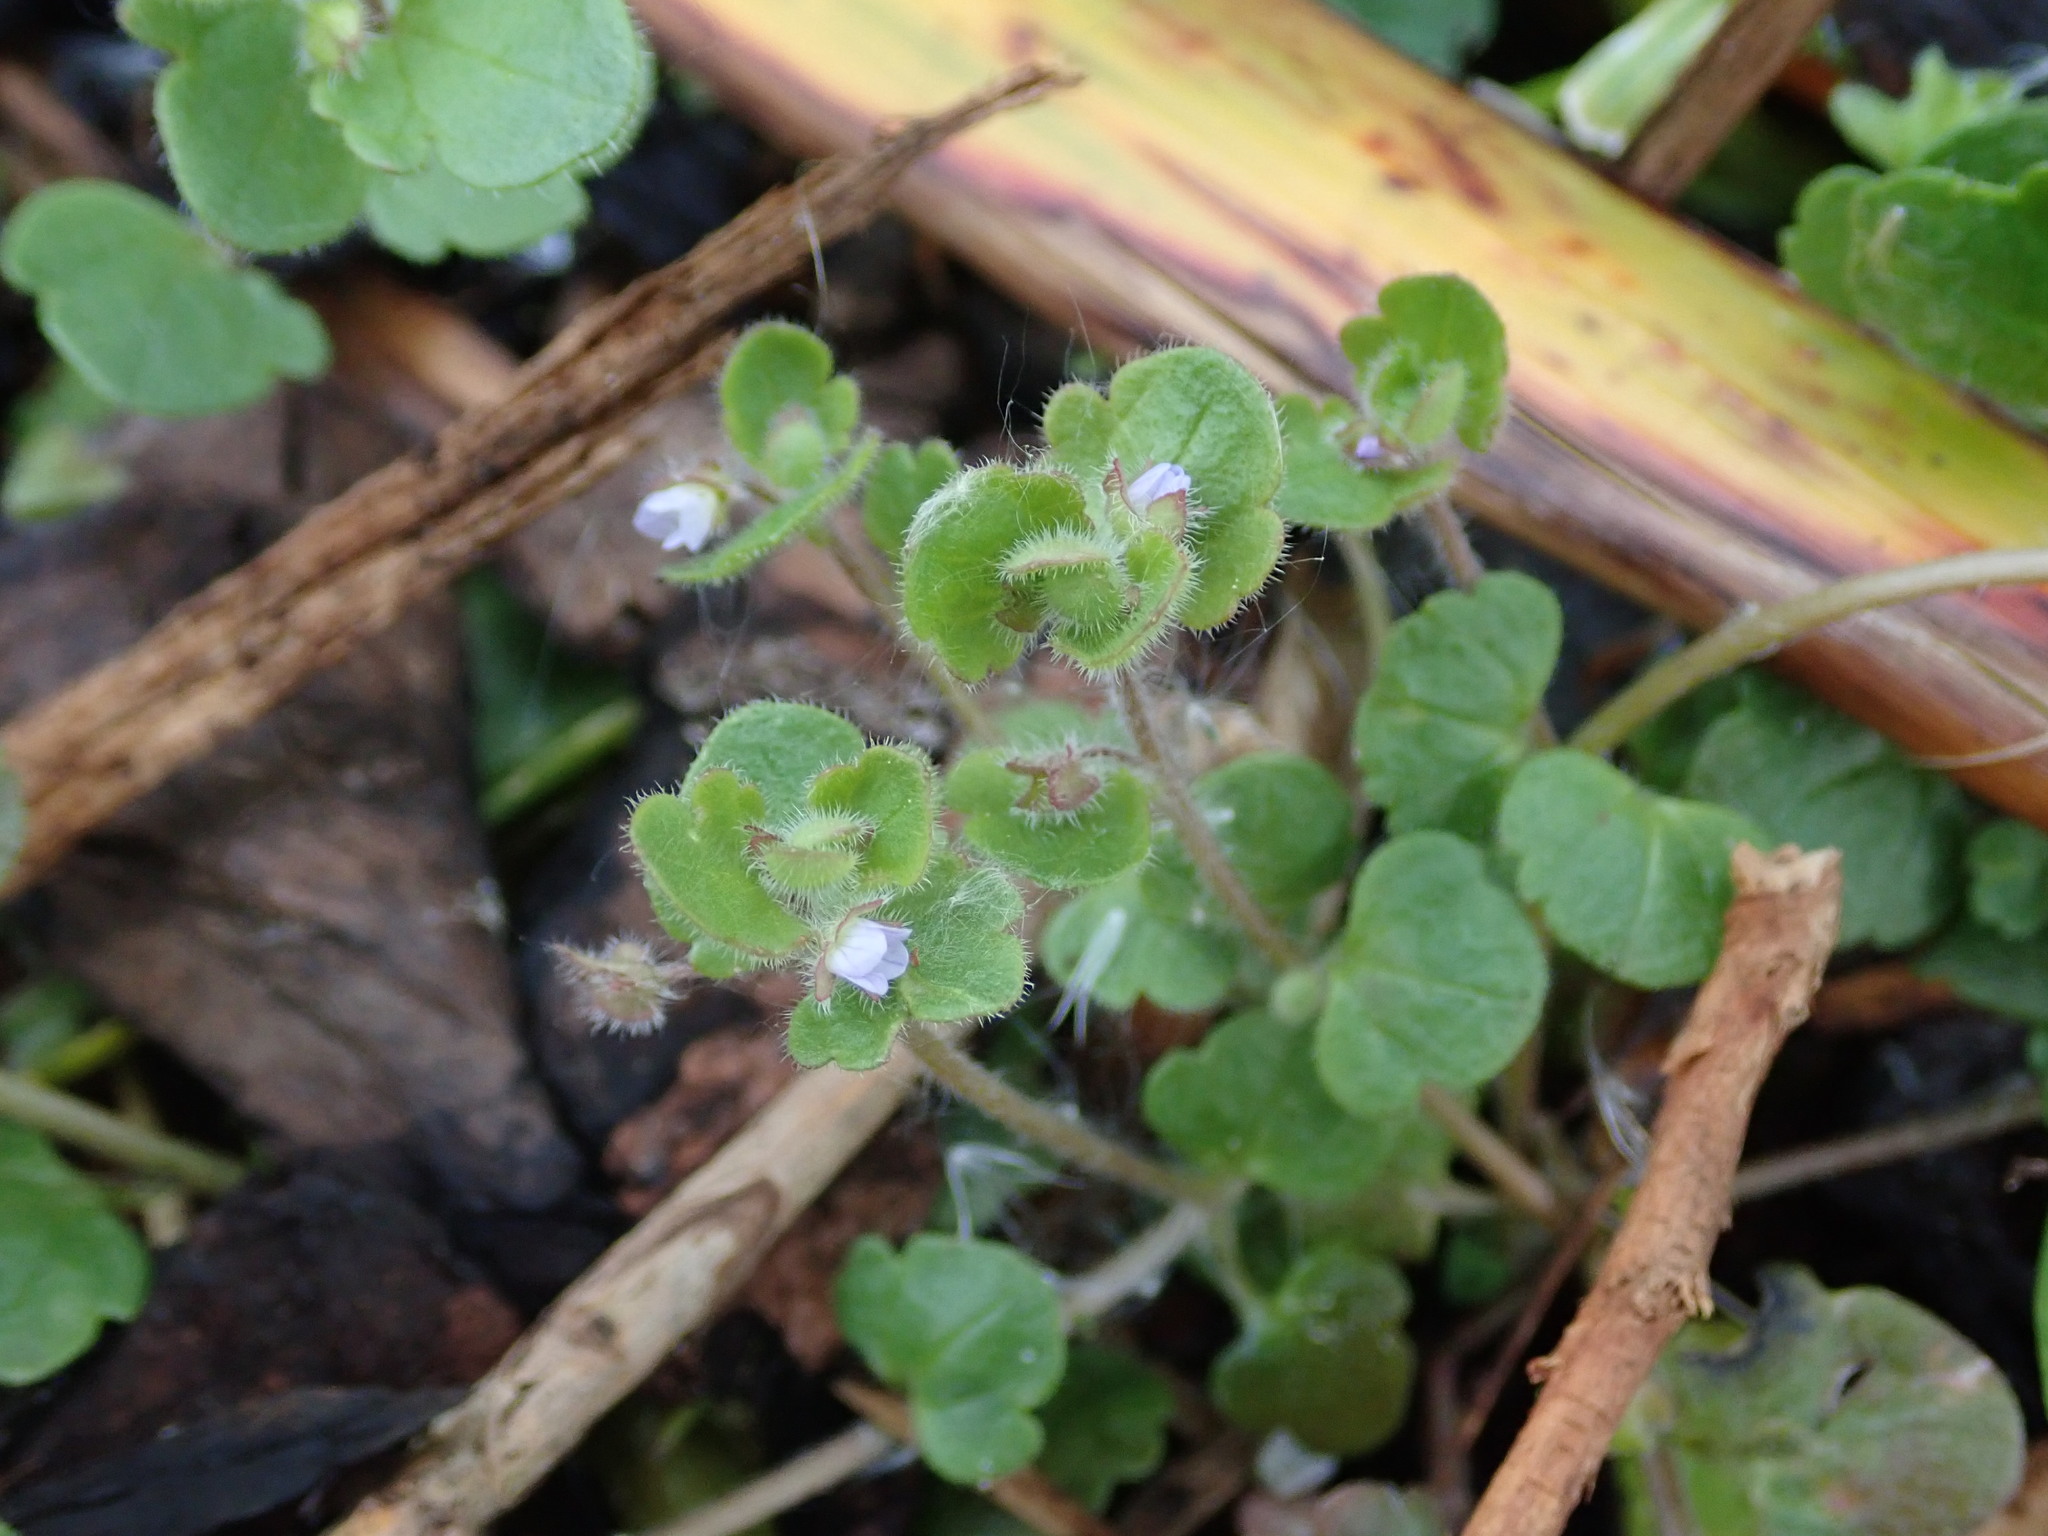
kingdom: Plantae
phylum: Tracheophyta
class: Magnoliopsida
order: Lamiales
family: Plantaginaceae
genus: Veronica
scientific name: Veronica sublobata
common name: False ivy-leaved speedwell
